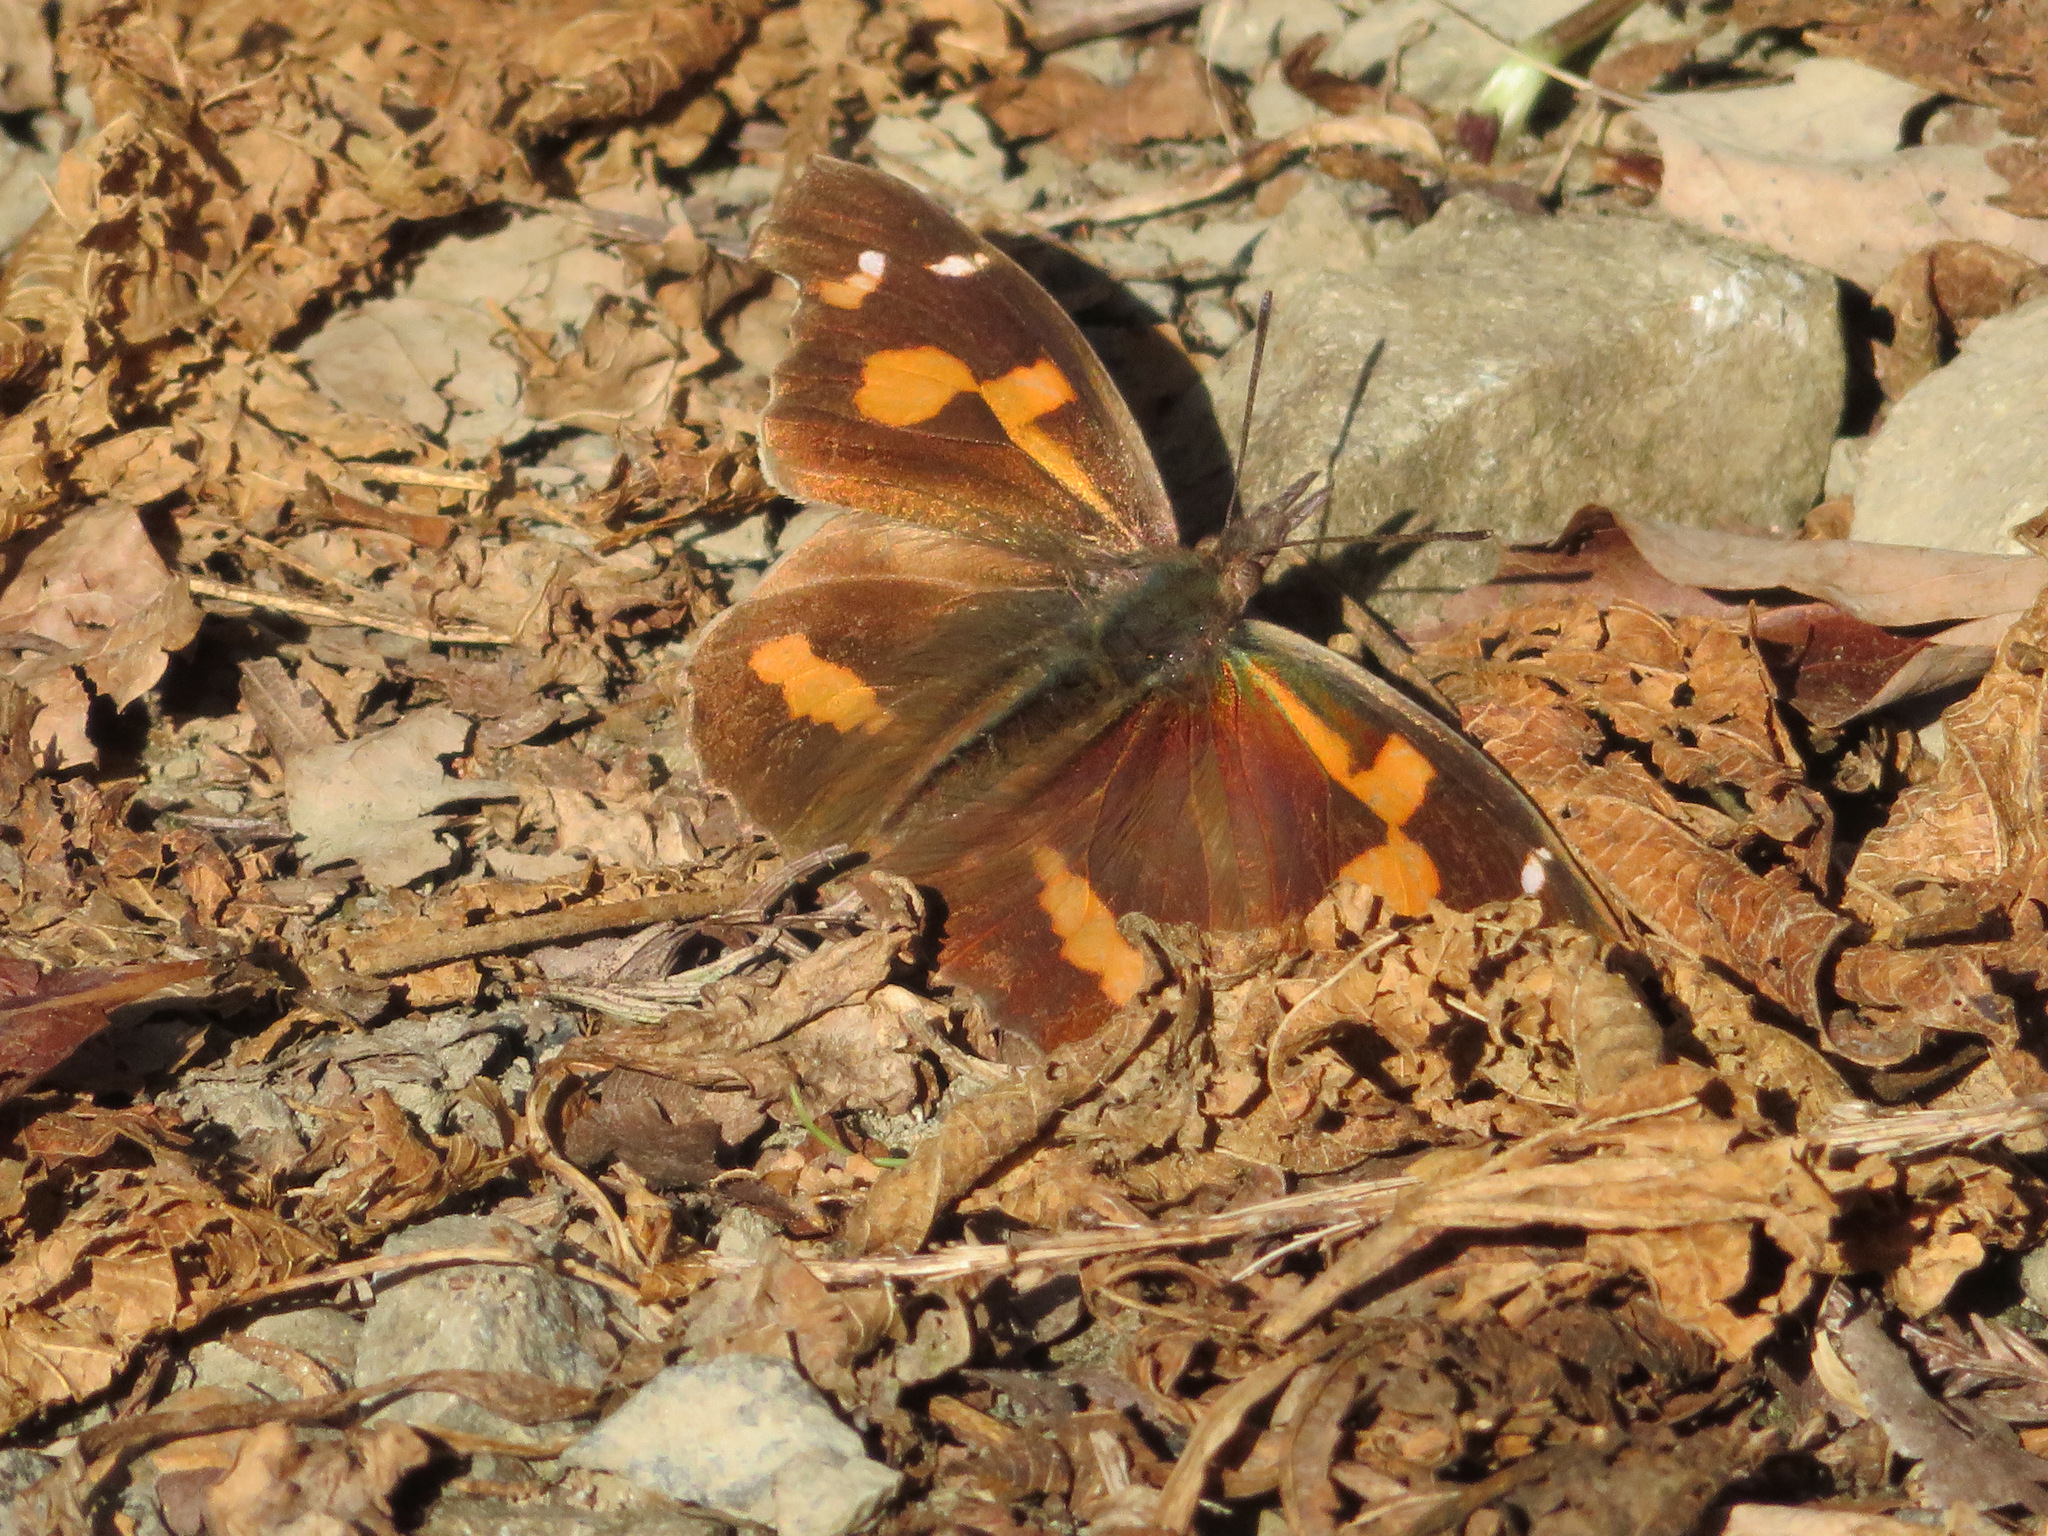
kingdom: Animalia
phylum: Arthropoda
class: Insecta
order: Lepidoptera
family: Nymphalidae
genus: Libythea
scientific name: Libythea lepita
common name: Common beak
